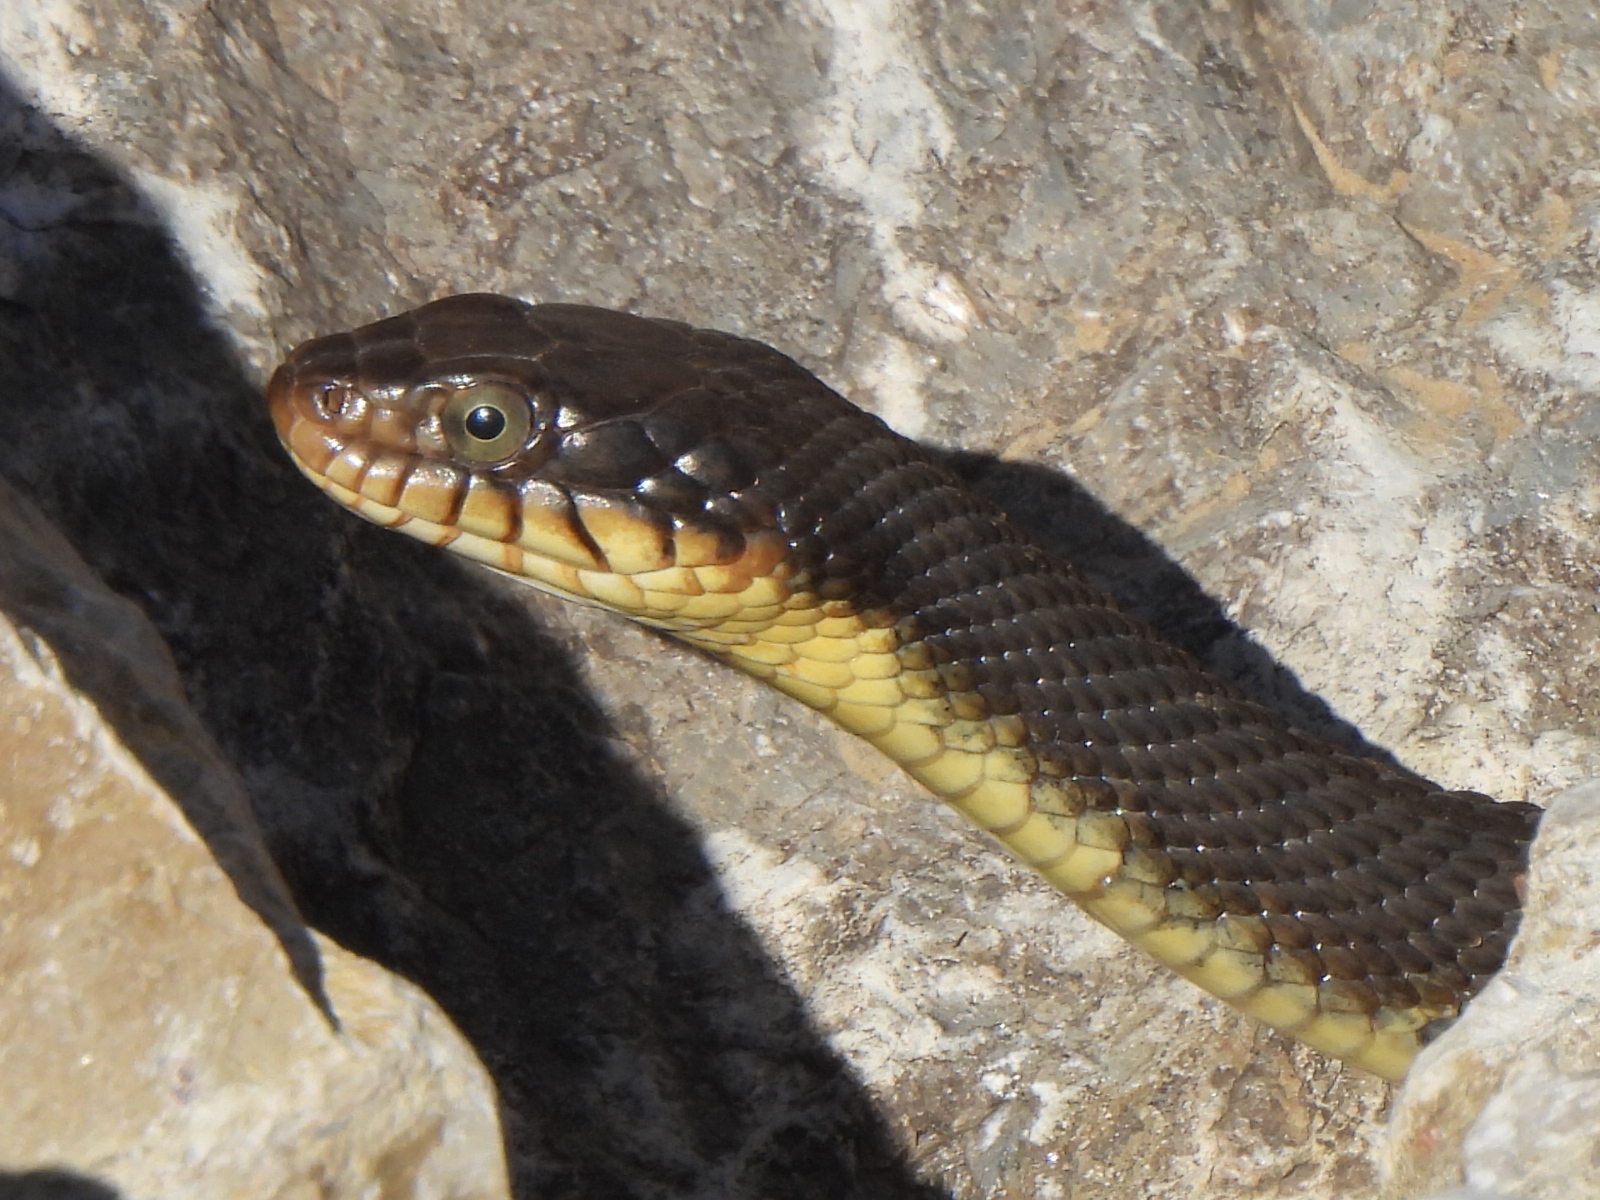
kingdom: Animalia
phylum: Chordata
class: Squamata
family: Colubridae
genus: Nerodia
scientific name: Nerodia erythrogaster
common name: Plainbelly water snake
